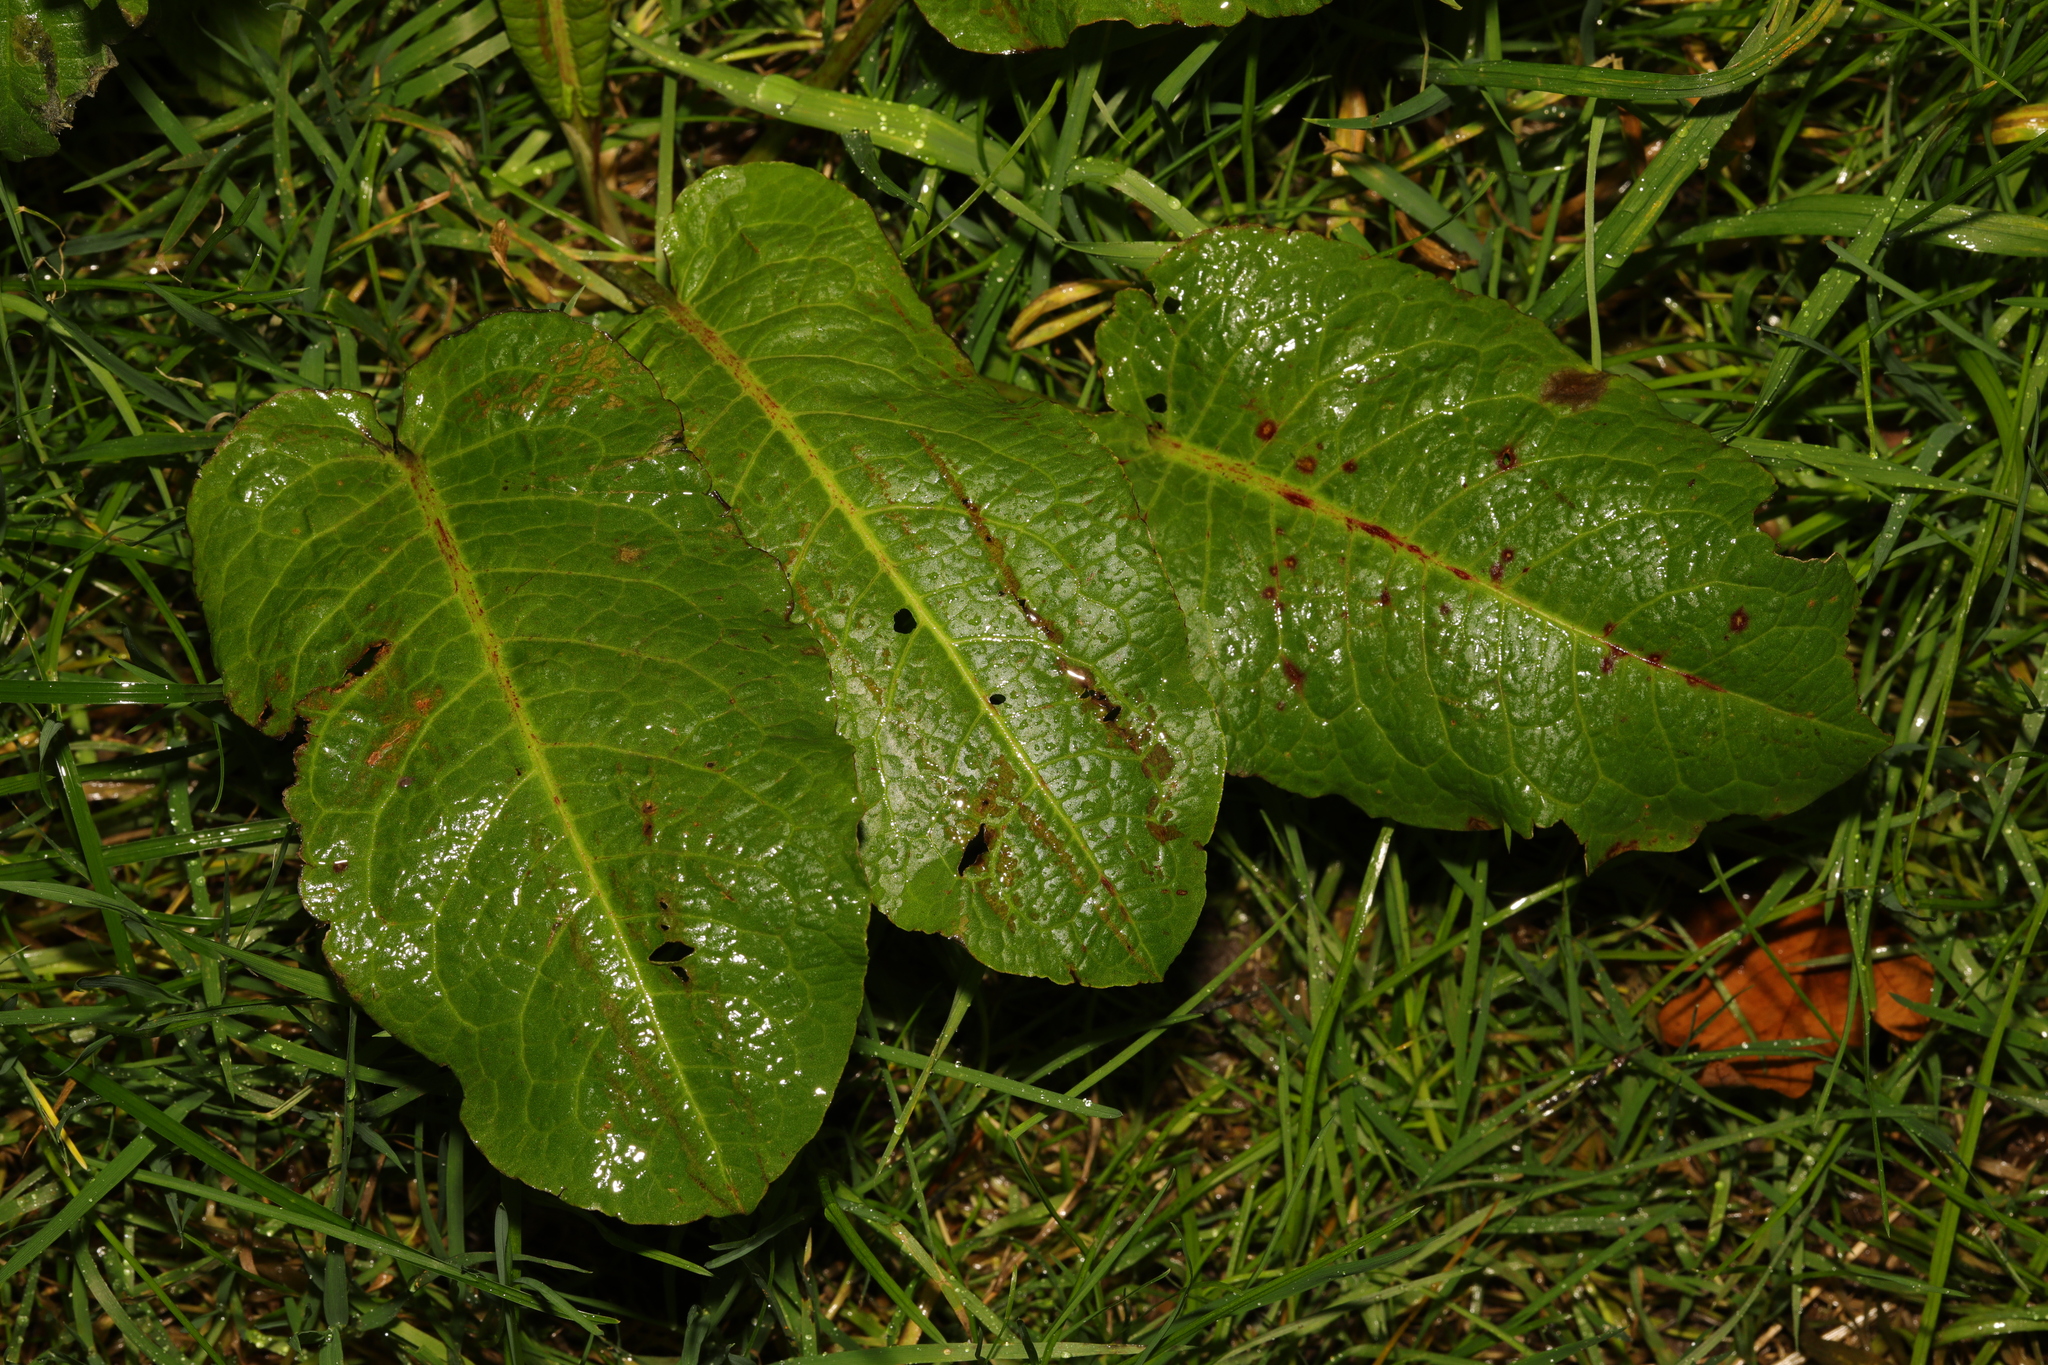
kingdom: Plantae
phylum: Tracheophyta
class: Magnoliopsida
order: Caryophyllales
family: Polygonaceae
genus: Rumex
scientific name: Rumex obtusifolius
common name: Bitter dock
